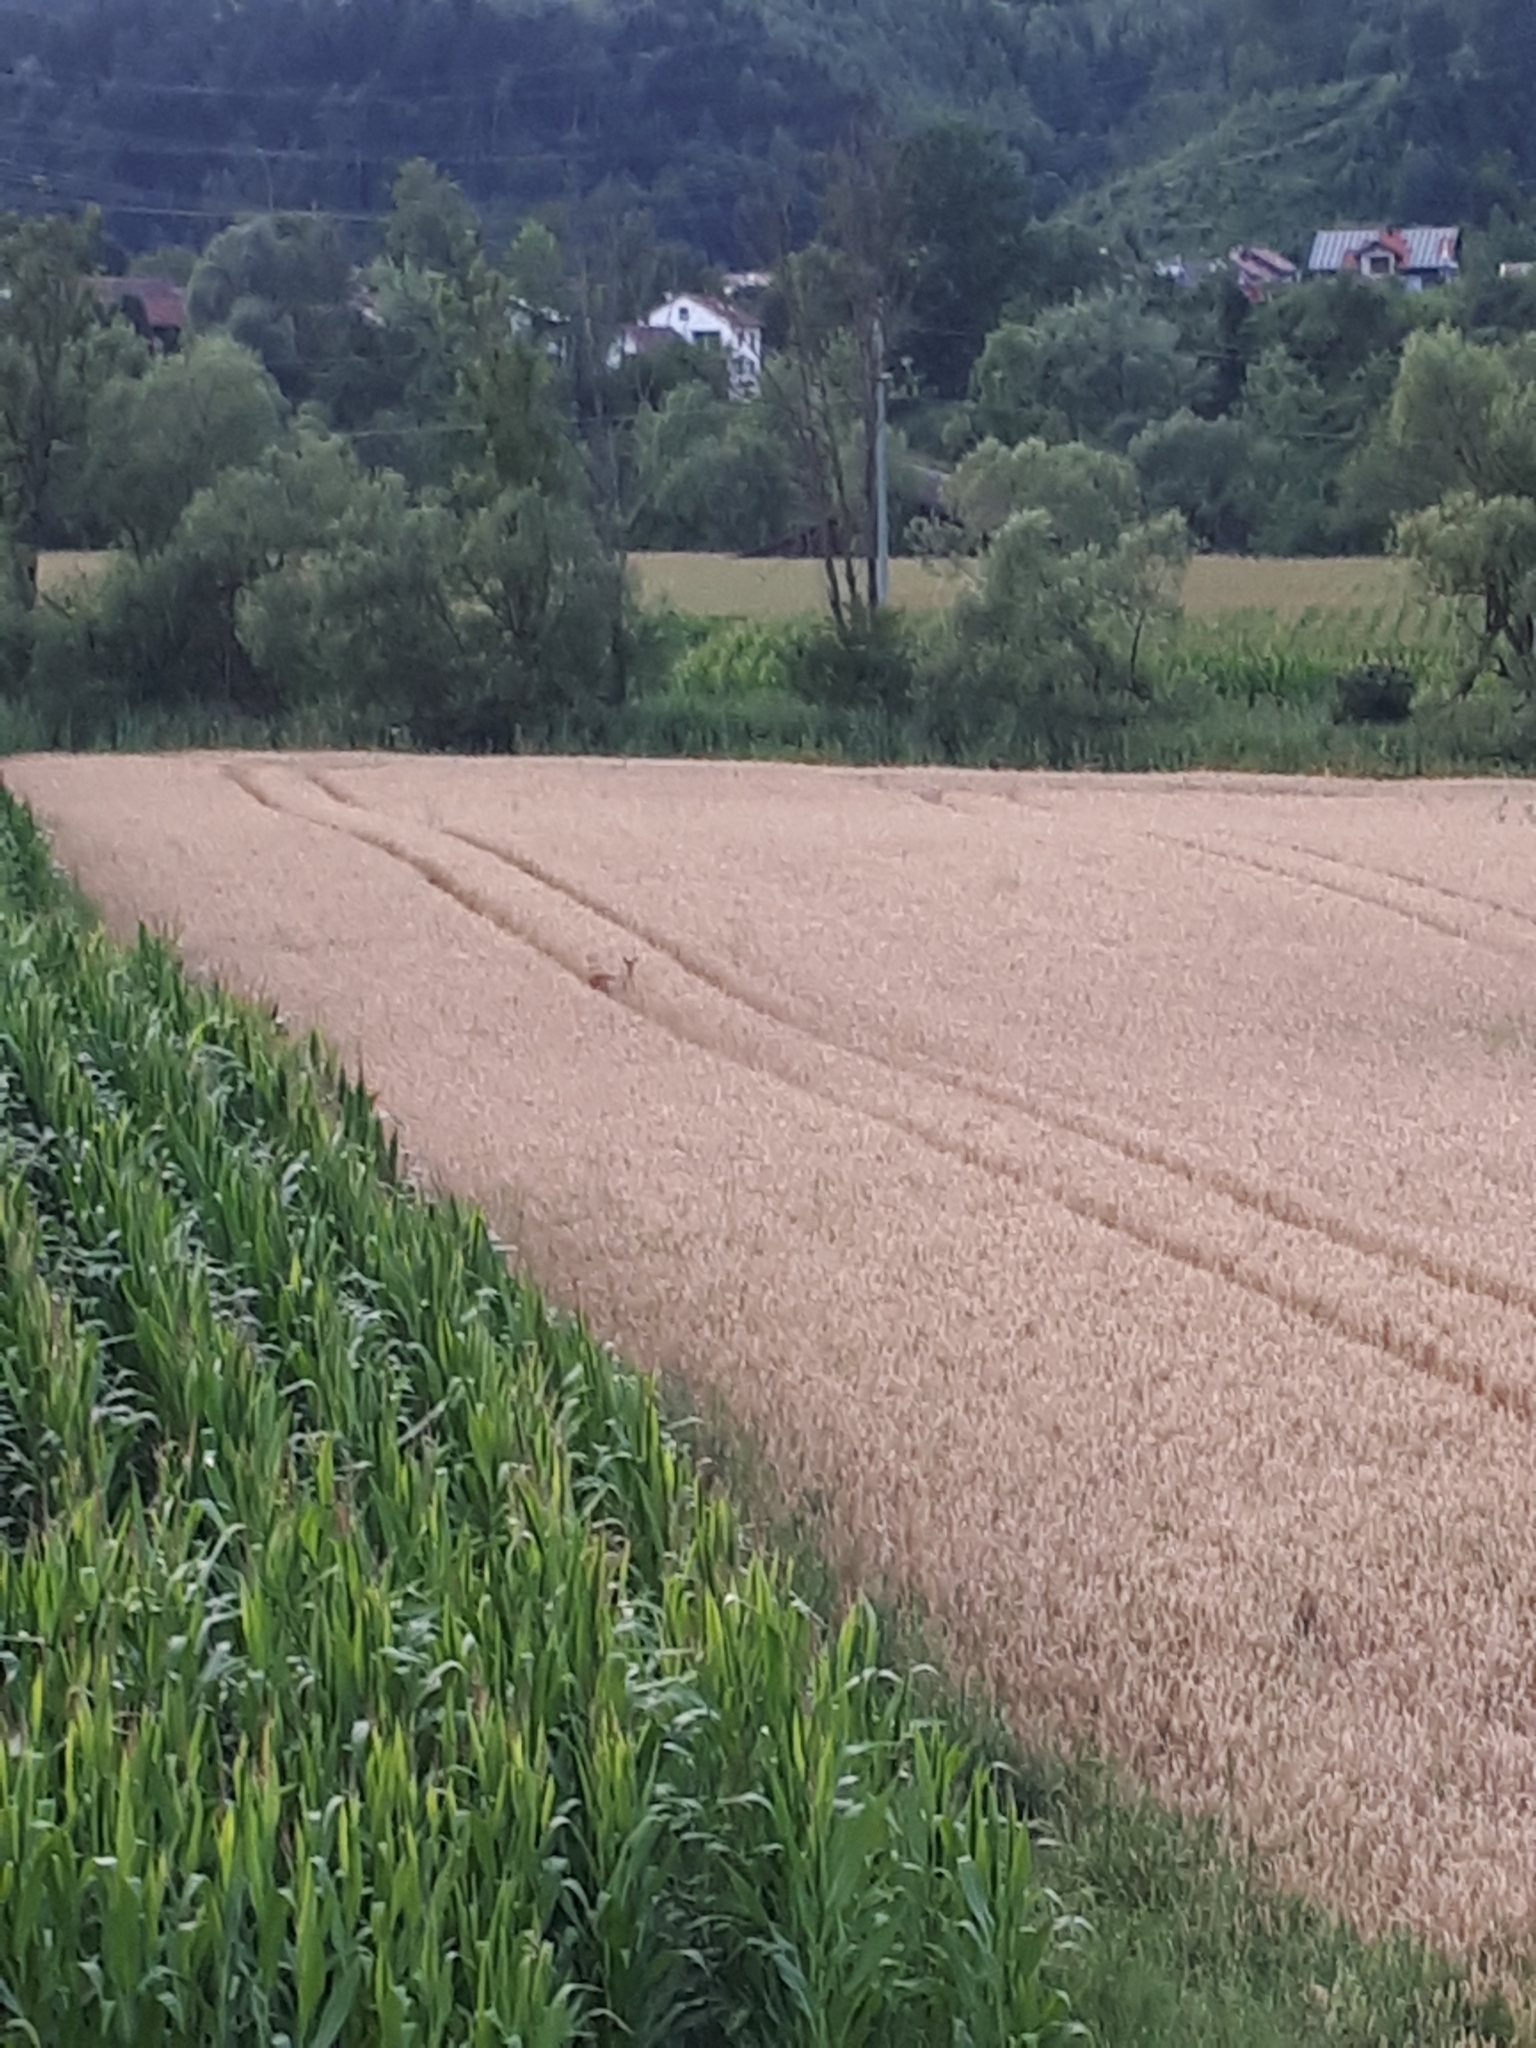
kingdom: Animalia
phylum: Chordata
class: Mammalia
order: Artiodactyla
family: Cervidae
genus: Capreolus
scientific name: Capreolus capreolus
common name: Western roe deer
